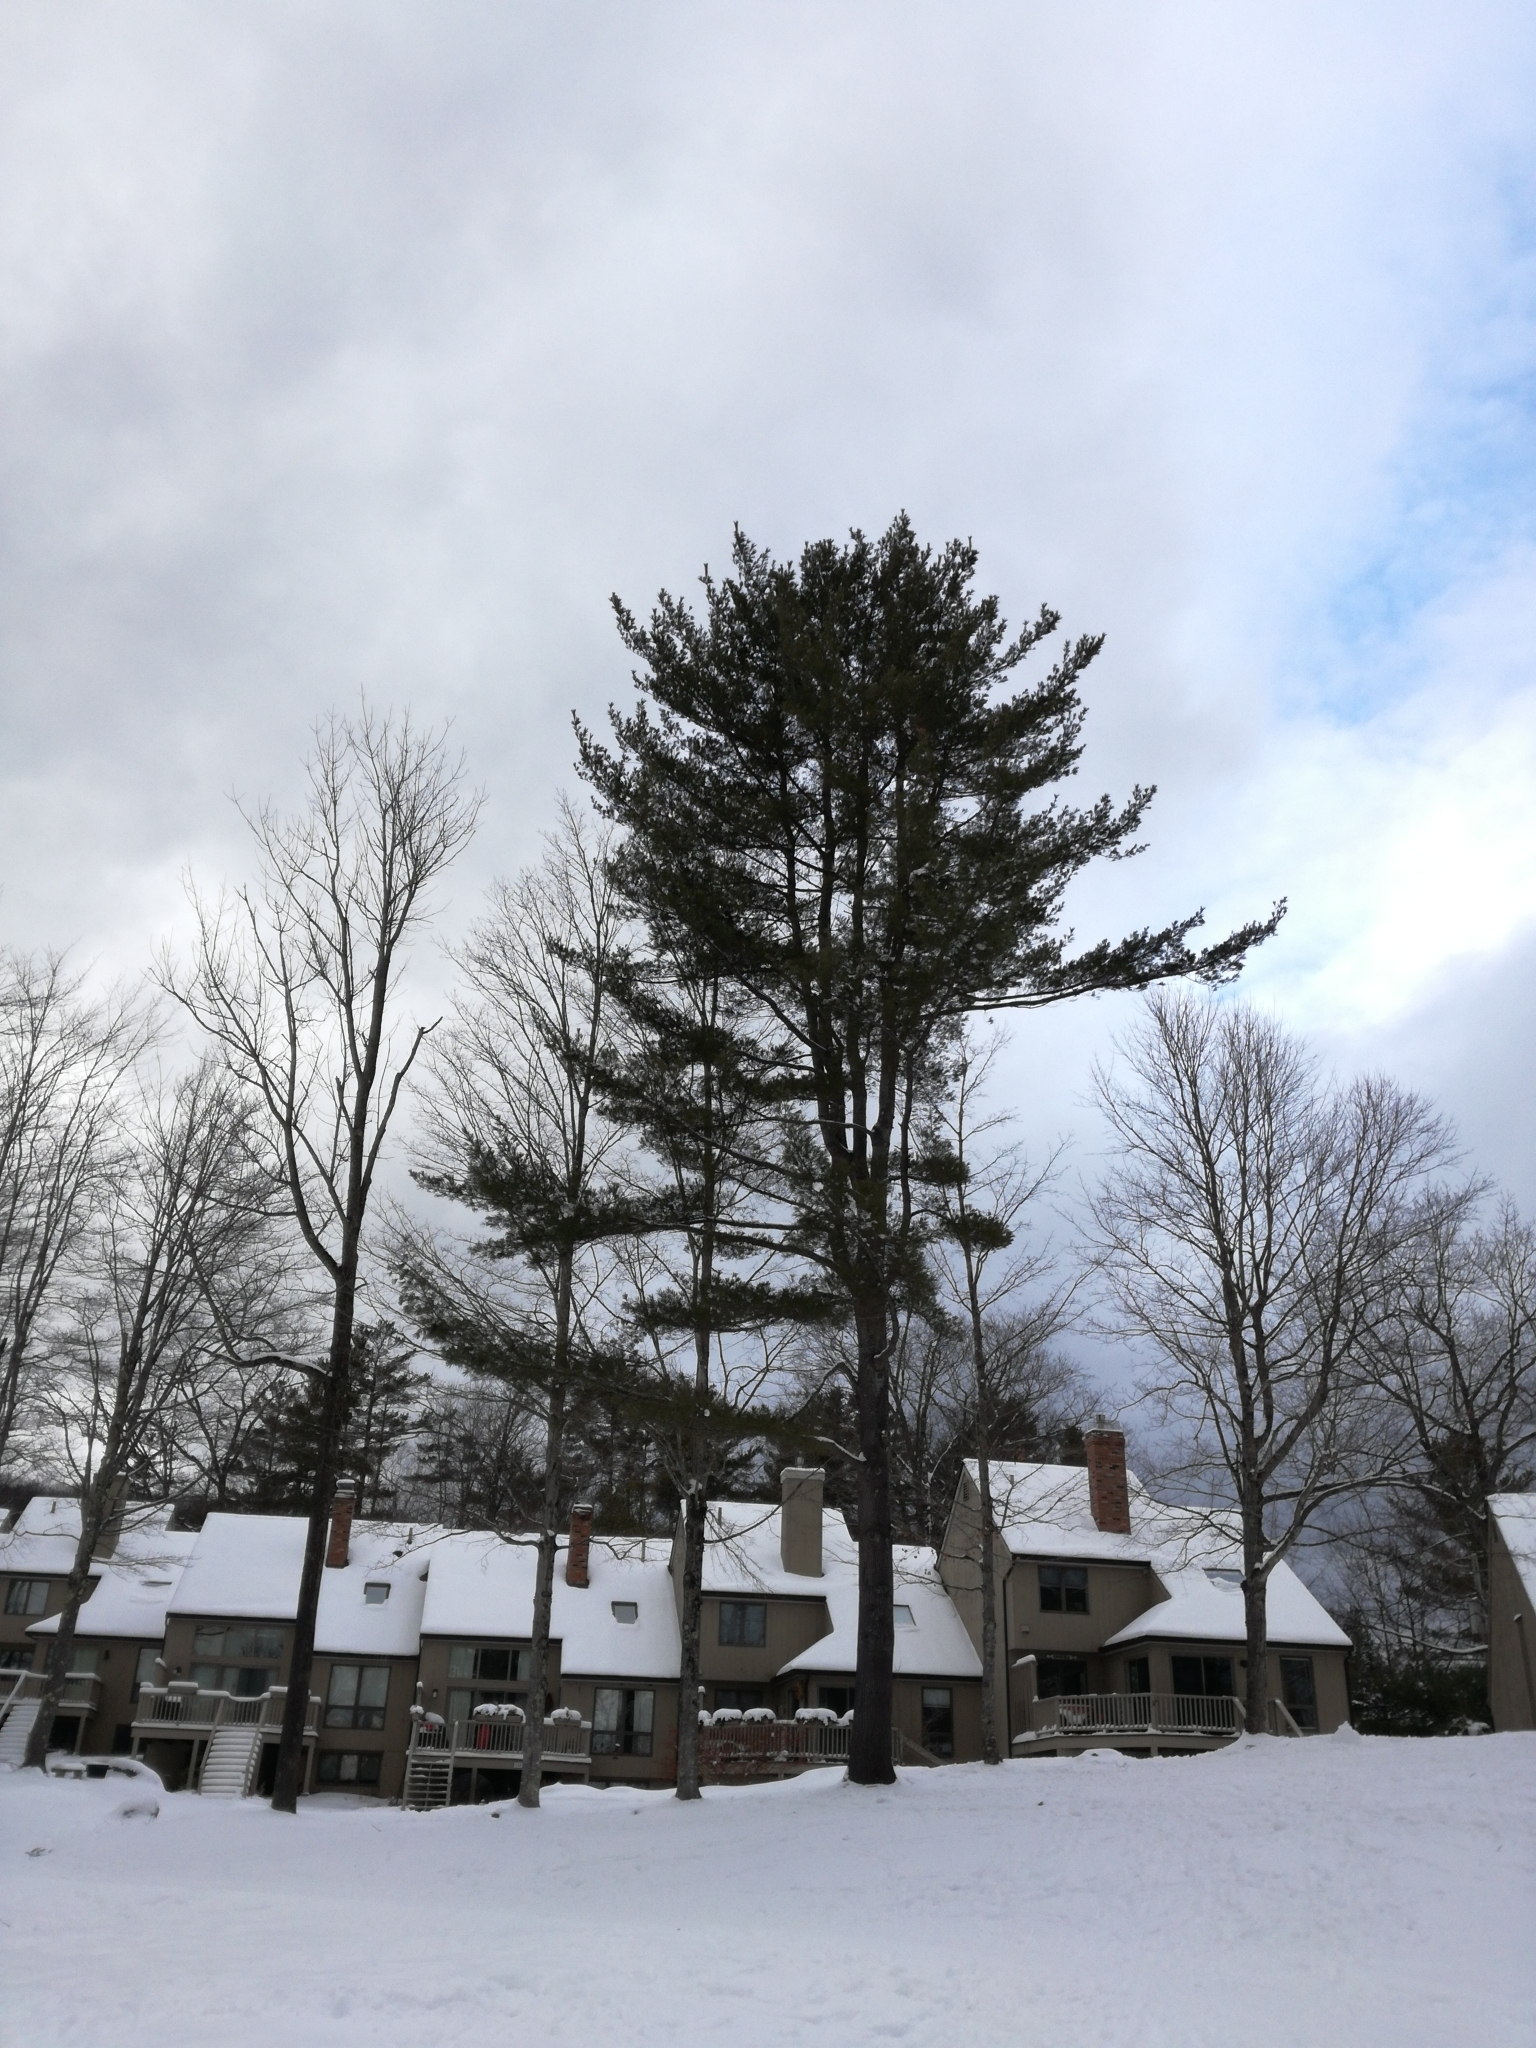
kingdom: Plantae
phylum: Tracheophyta
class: Pinopsida
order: Pinales
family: Pinaceae
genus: Pinus
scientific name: Pinus strobus
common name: Weymouth pine
